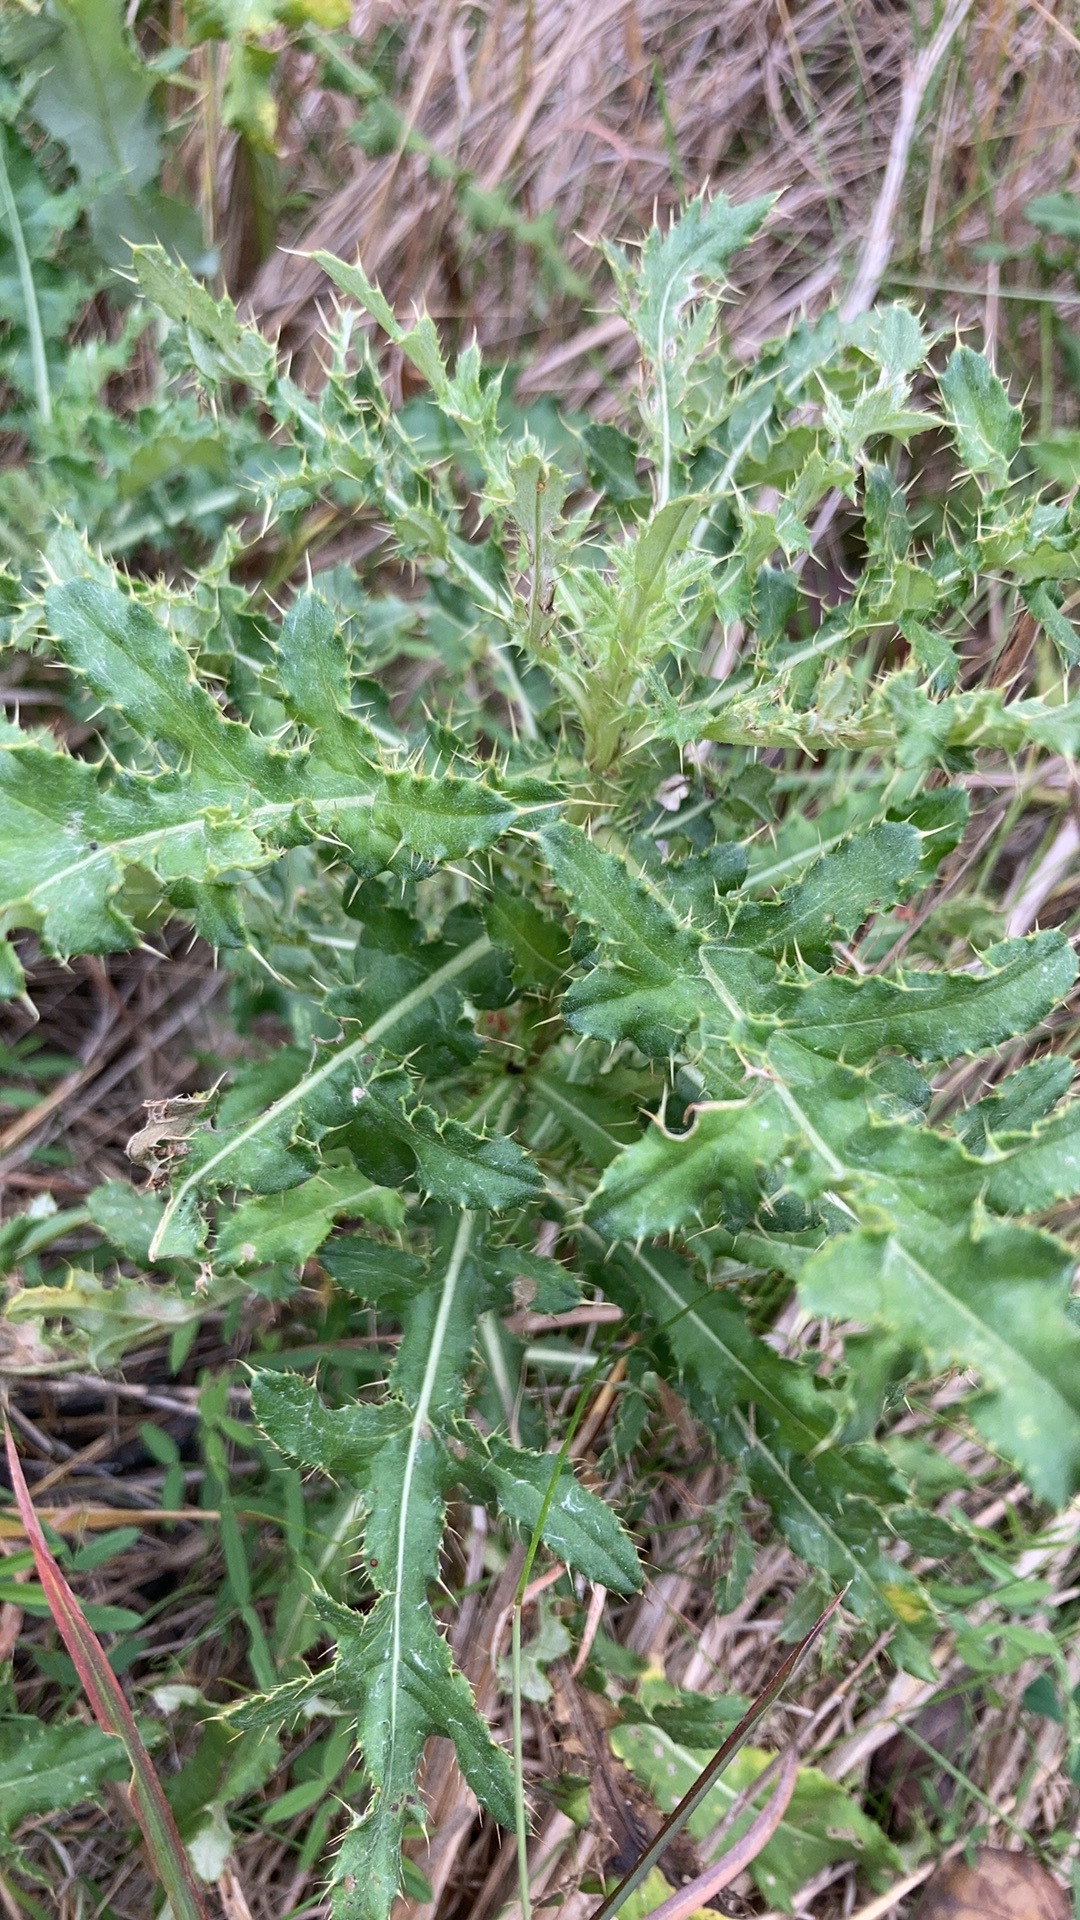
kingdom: Plantae
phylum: Tracheophyta
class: Magnoliopsida
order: Asterales
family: Asteraceae
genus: Cirsium
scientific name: Cirsium arvense
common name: Creeping thistle
